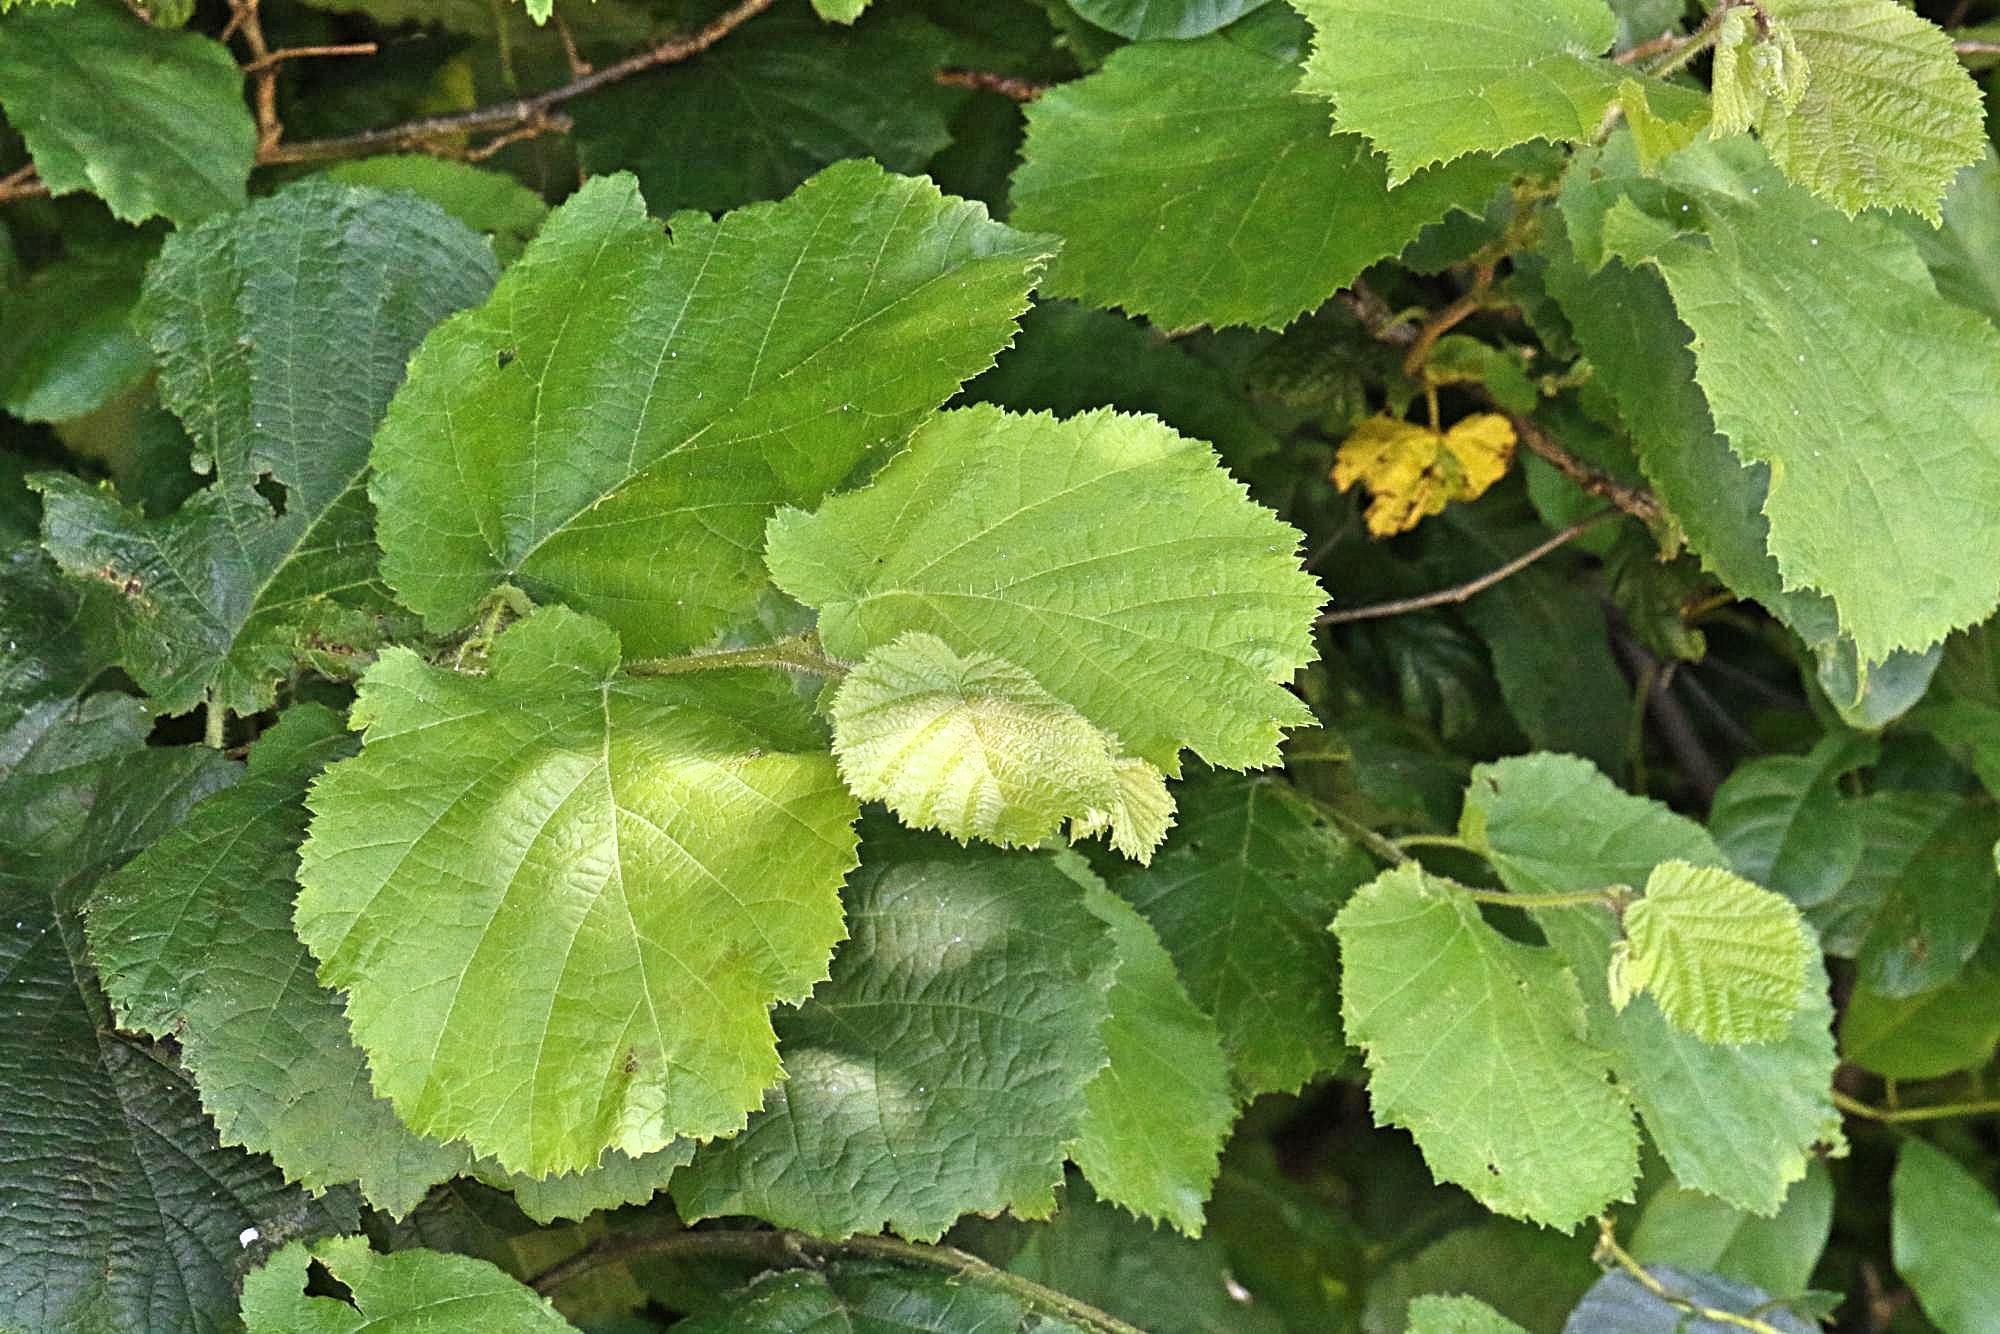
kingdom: Plantae
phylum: Tracheophyta
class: Magnoliopsida
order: Fagales
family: Betulaceae
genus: Corylus
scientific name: Corylus avellana
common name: European hazel
